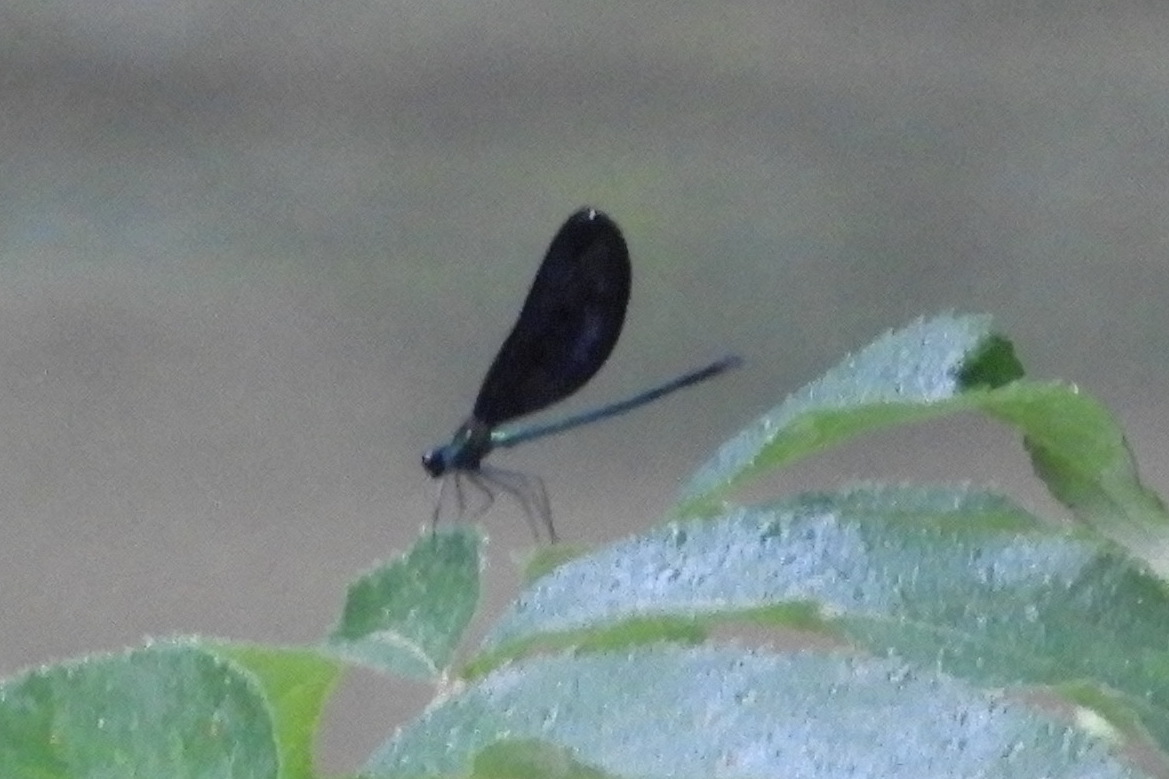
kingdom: Animalia
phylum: Arthropoda
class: Insecta
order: Odonata
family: Calopterygidae
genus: Calopteryx
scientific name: Calopteryx maculata
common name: Ebony jewelwing
